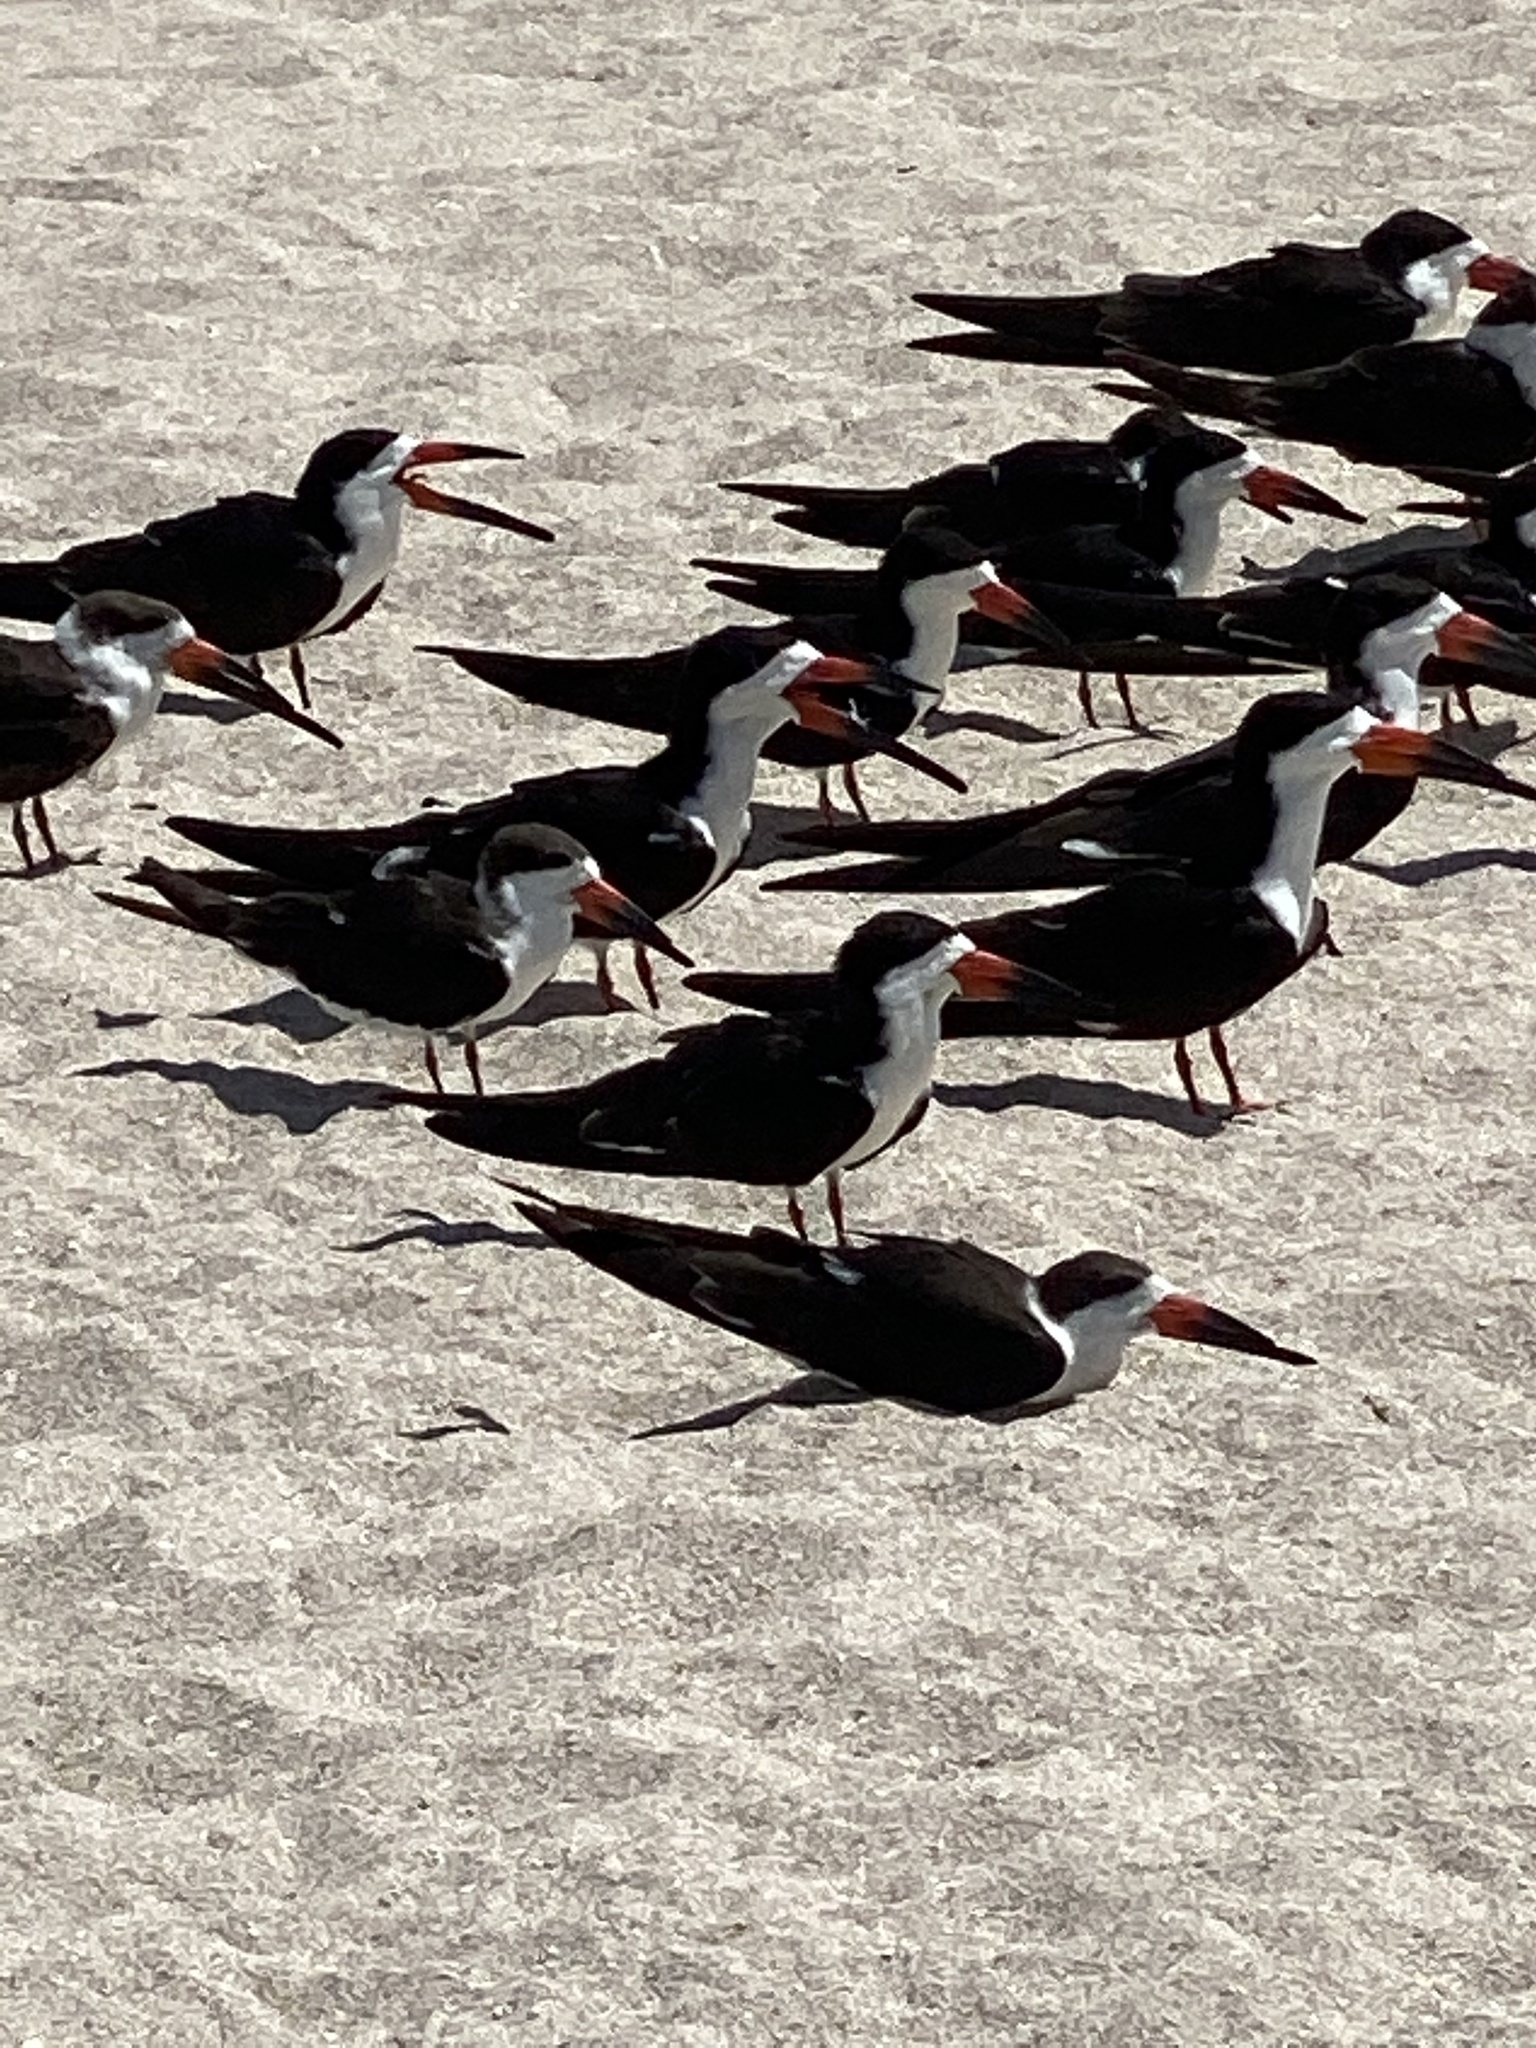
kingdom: Animalia
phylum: Chordata
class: Aves
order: Charadriiformes
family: Laridae
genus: Rynchops
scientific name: Rynchops niger
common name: Black skimmer
